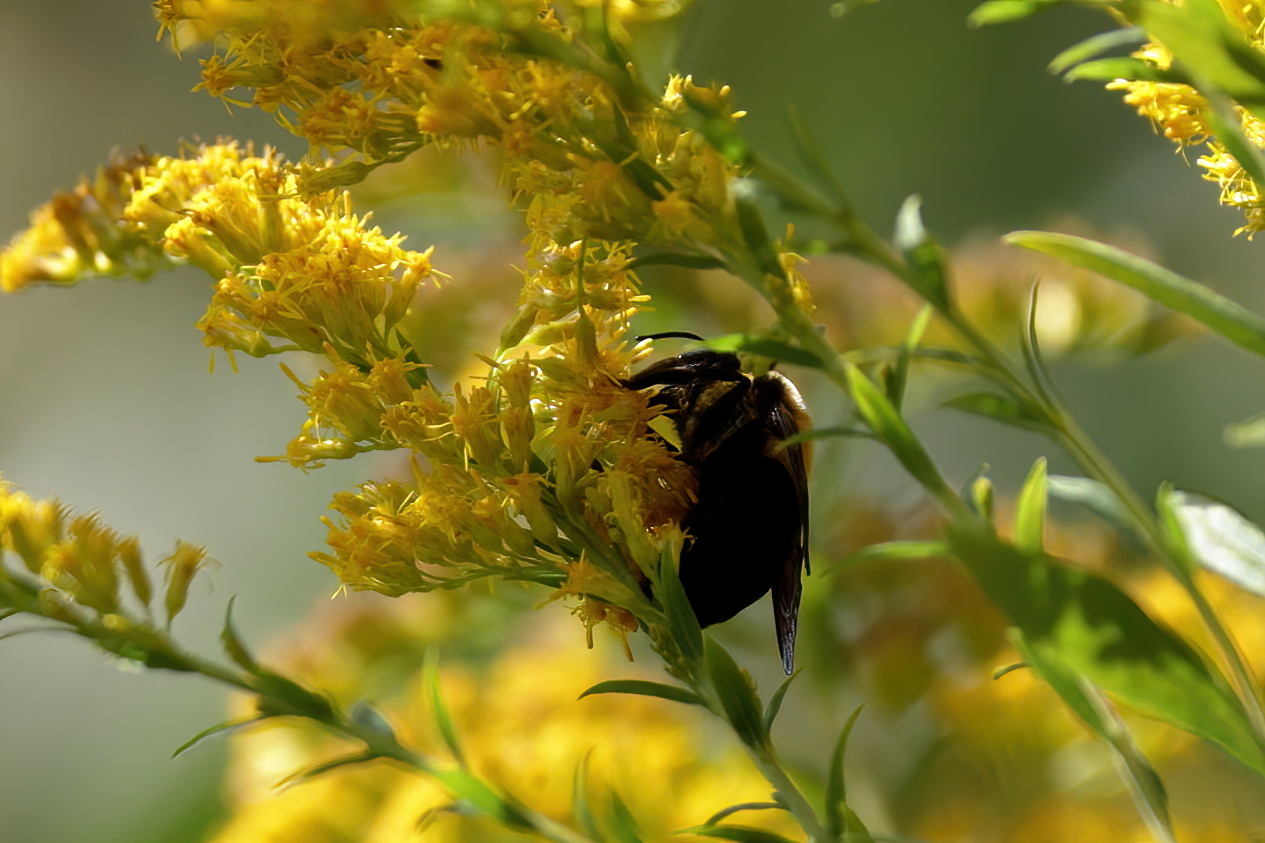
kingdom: Animalia
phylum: Arthropoda
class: Insecta
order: Hymenoptera
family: Apidae
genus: Xylocopa
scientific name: Xylocopa virginica
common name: Carpenter bee
